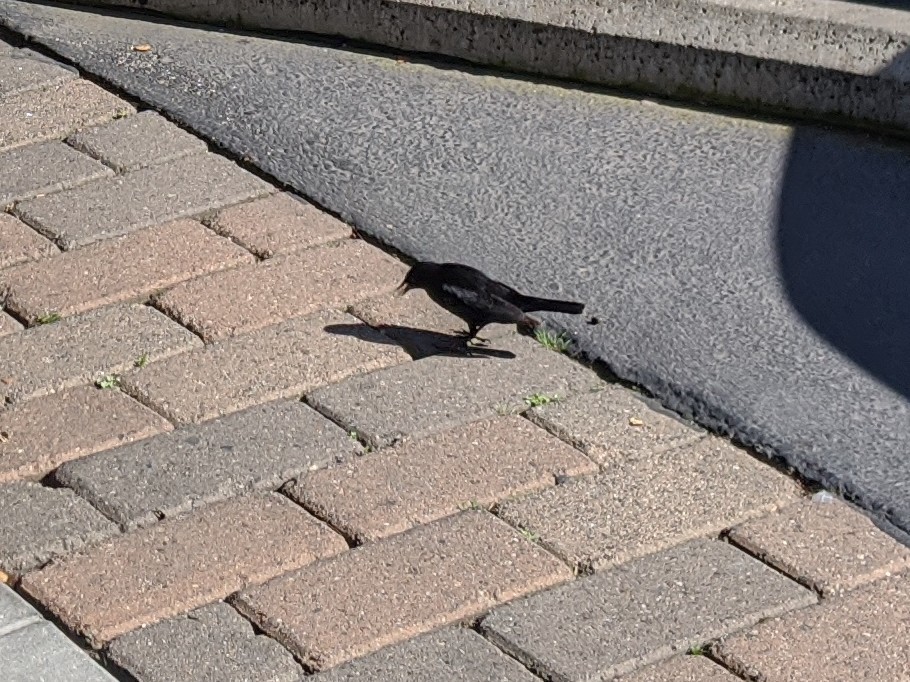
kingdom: Animalia
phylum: Chordata
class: Aves
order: Passeriformes
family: Icteridae
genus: Agelaius
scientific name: Agelaius phoeniceus
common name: Red-winged blackbird
